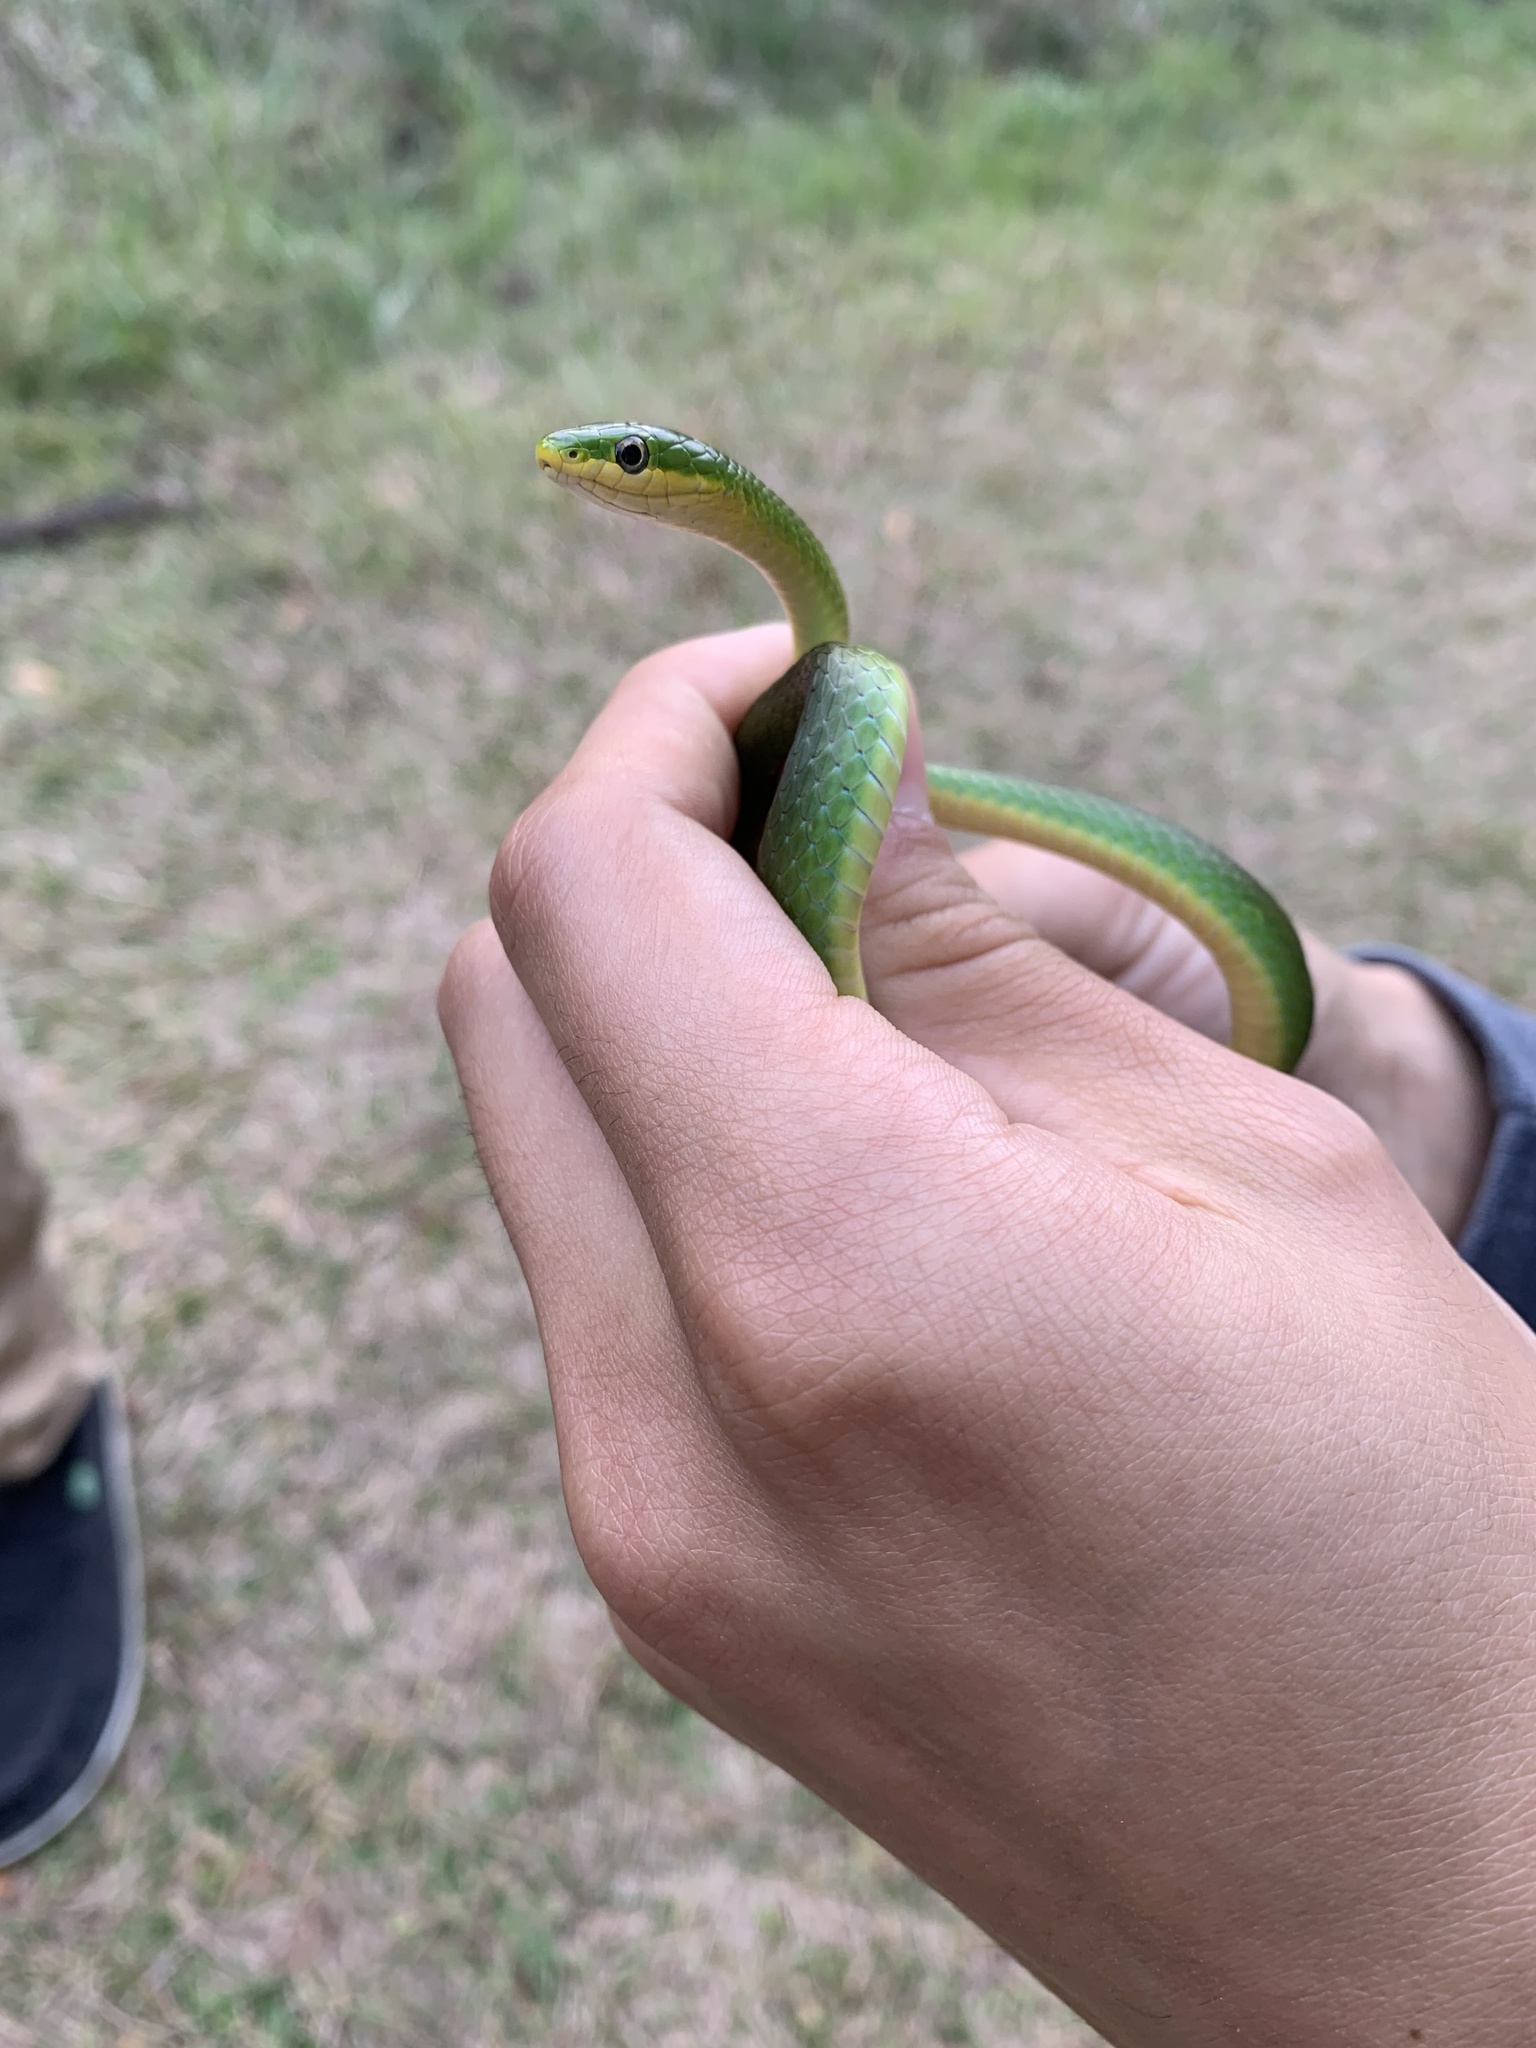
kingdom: Animalia
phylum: Chordata
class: Squamata
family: Colubridae
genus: Opheodrys
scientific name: Opheodrys aestivus
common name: Rough greensnake
